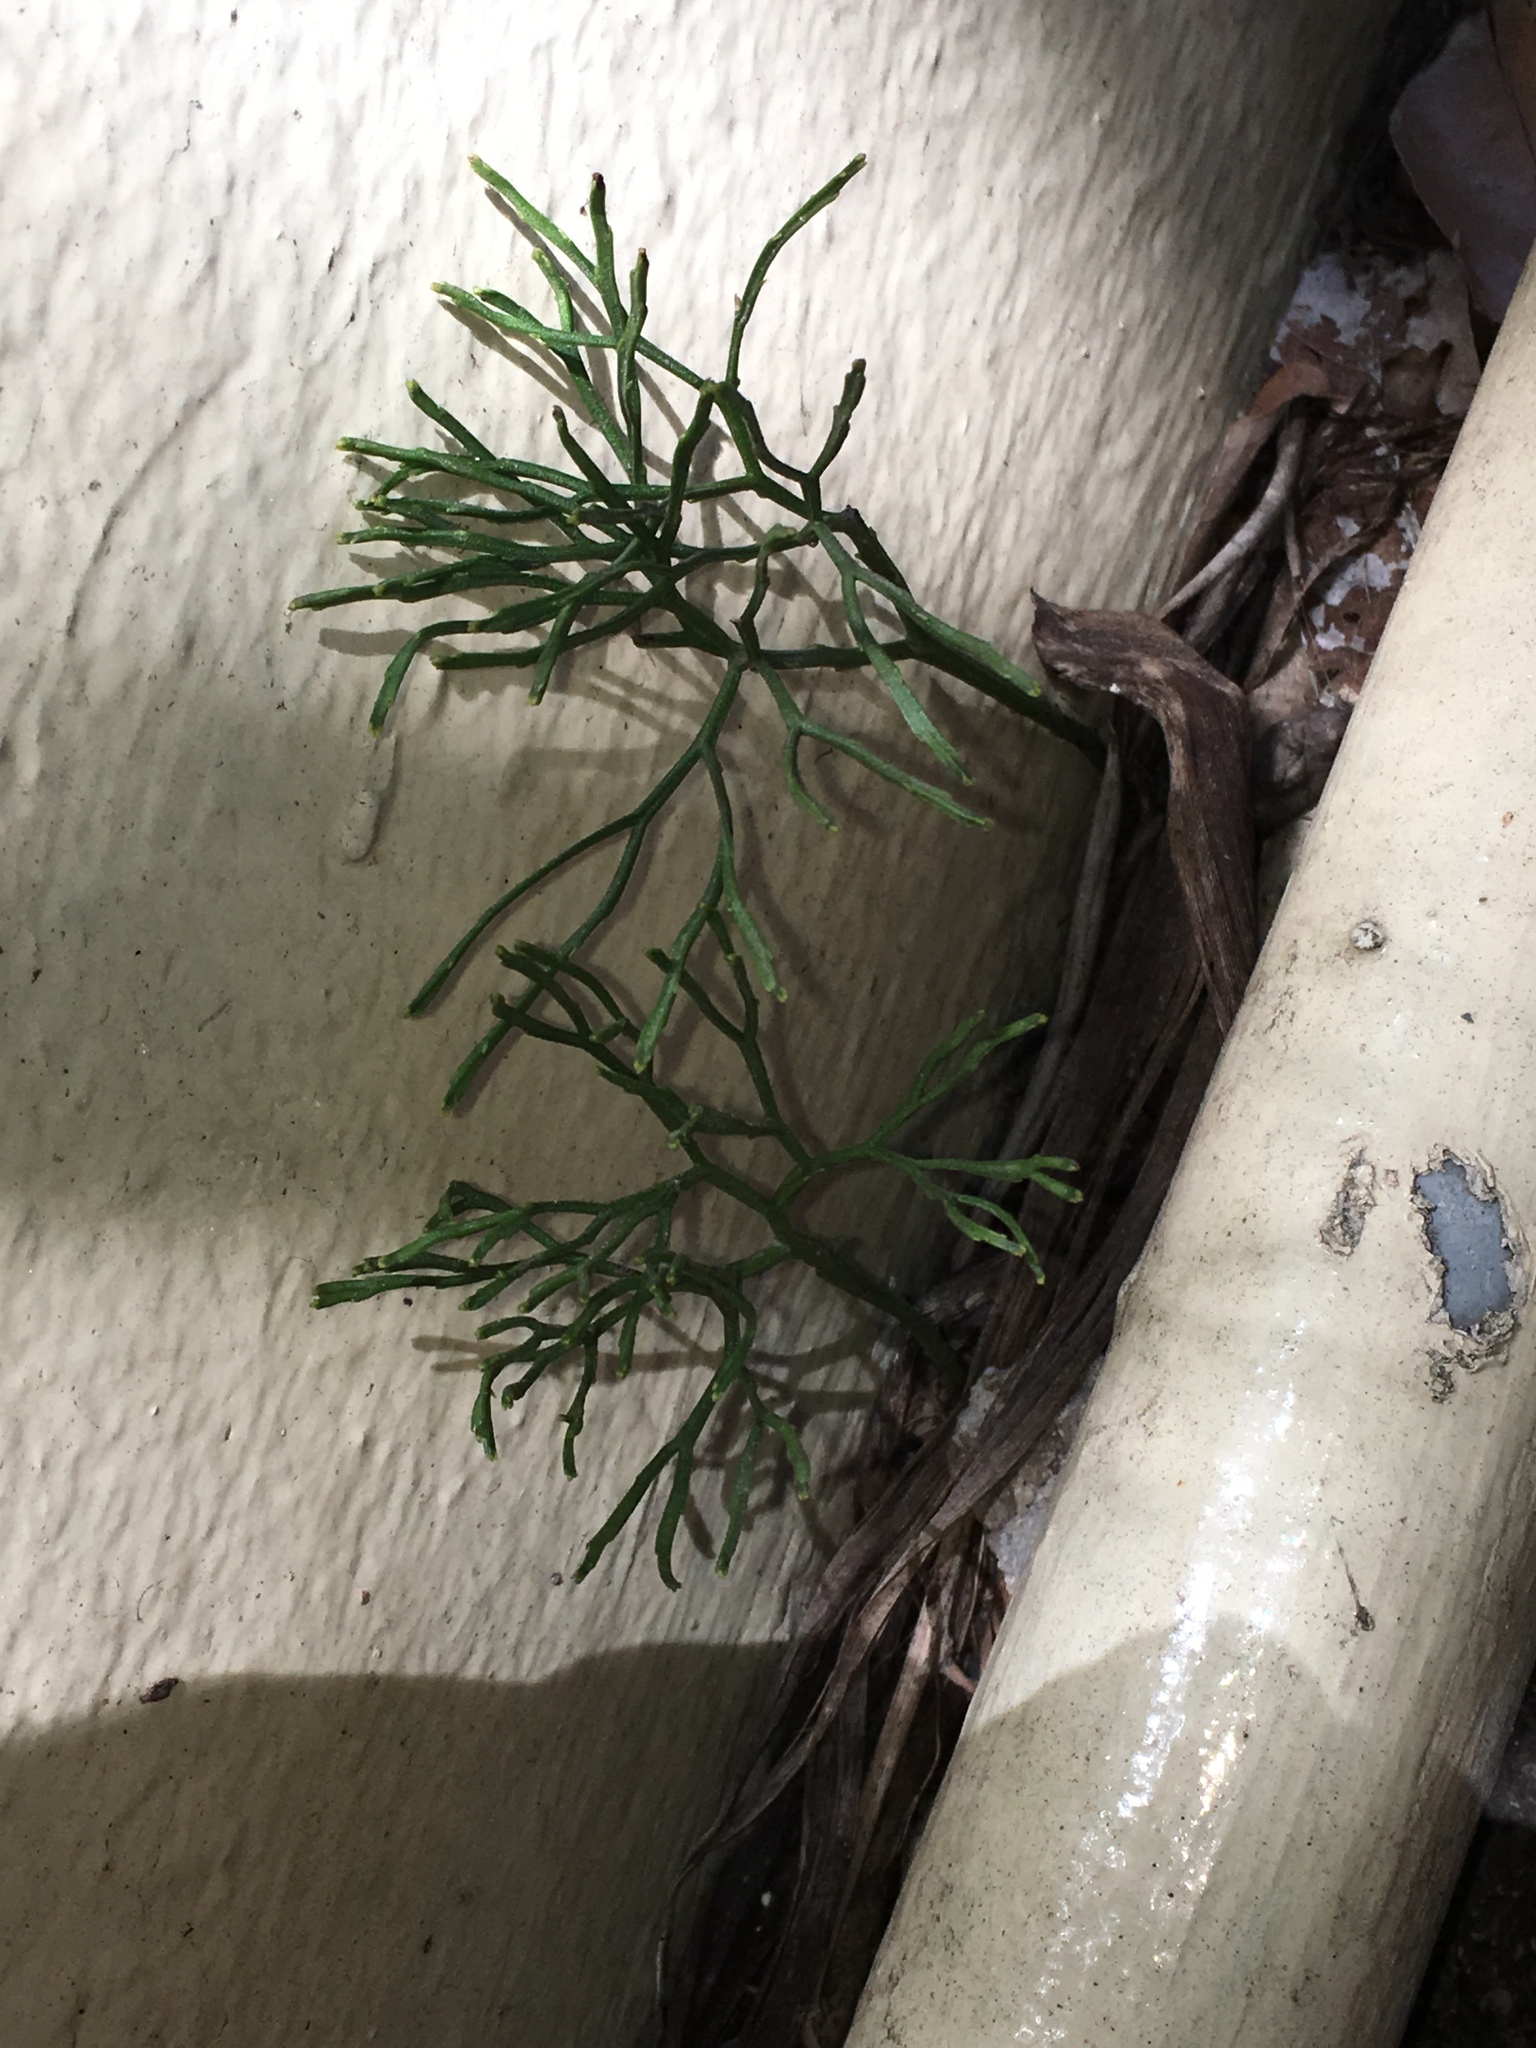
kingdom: Plantae
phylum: Tracheophyta
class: Polypodiopsida
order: Psilotales
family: Psilotaceae
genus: Psilotum
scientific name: Psilotum nudum
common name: Skeleton fork fern
